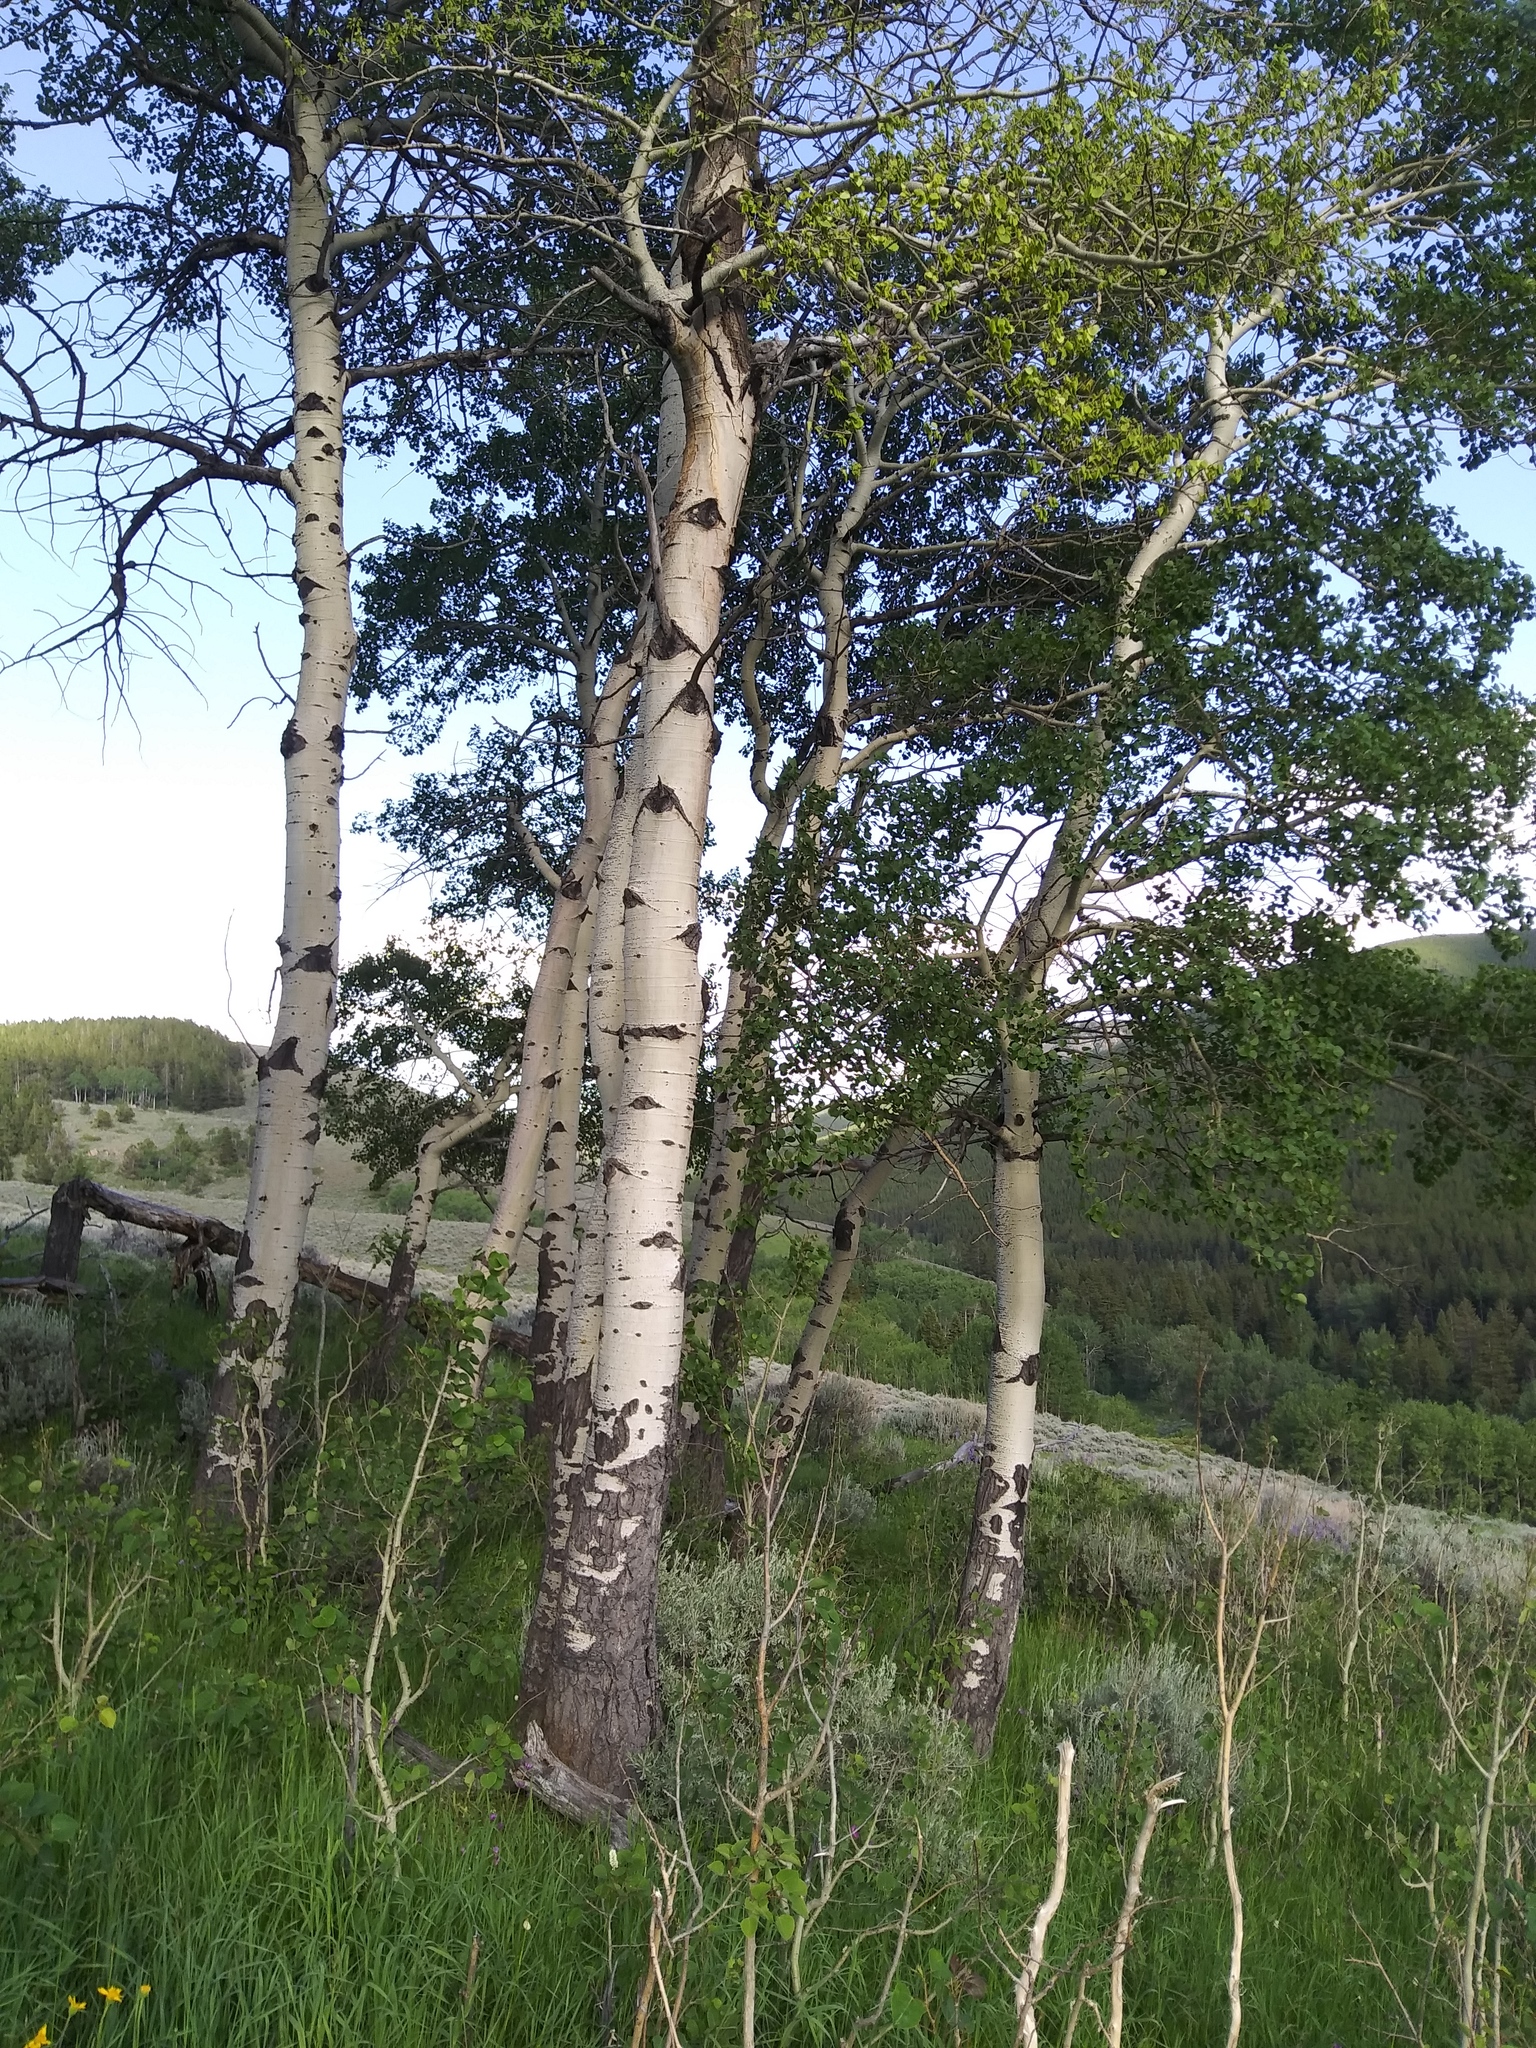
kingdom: Plantae
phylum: Tracheophyta
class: Magnoliopsida
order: Malpighiales
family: Salicaceae
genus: Populus
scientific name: Populus tremuloides
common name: Quaking aspen
